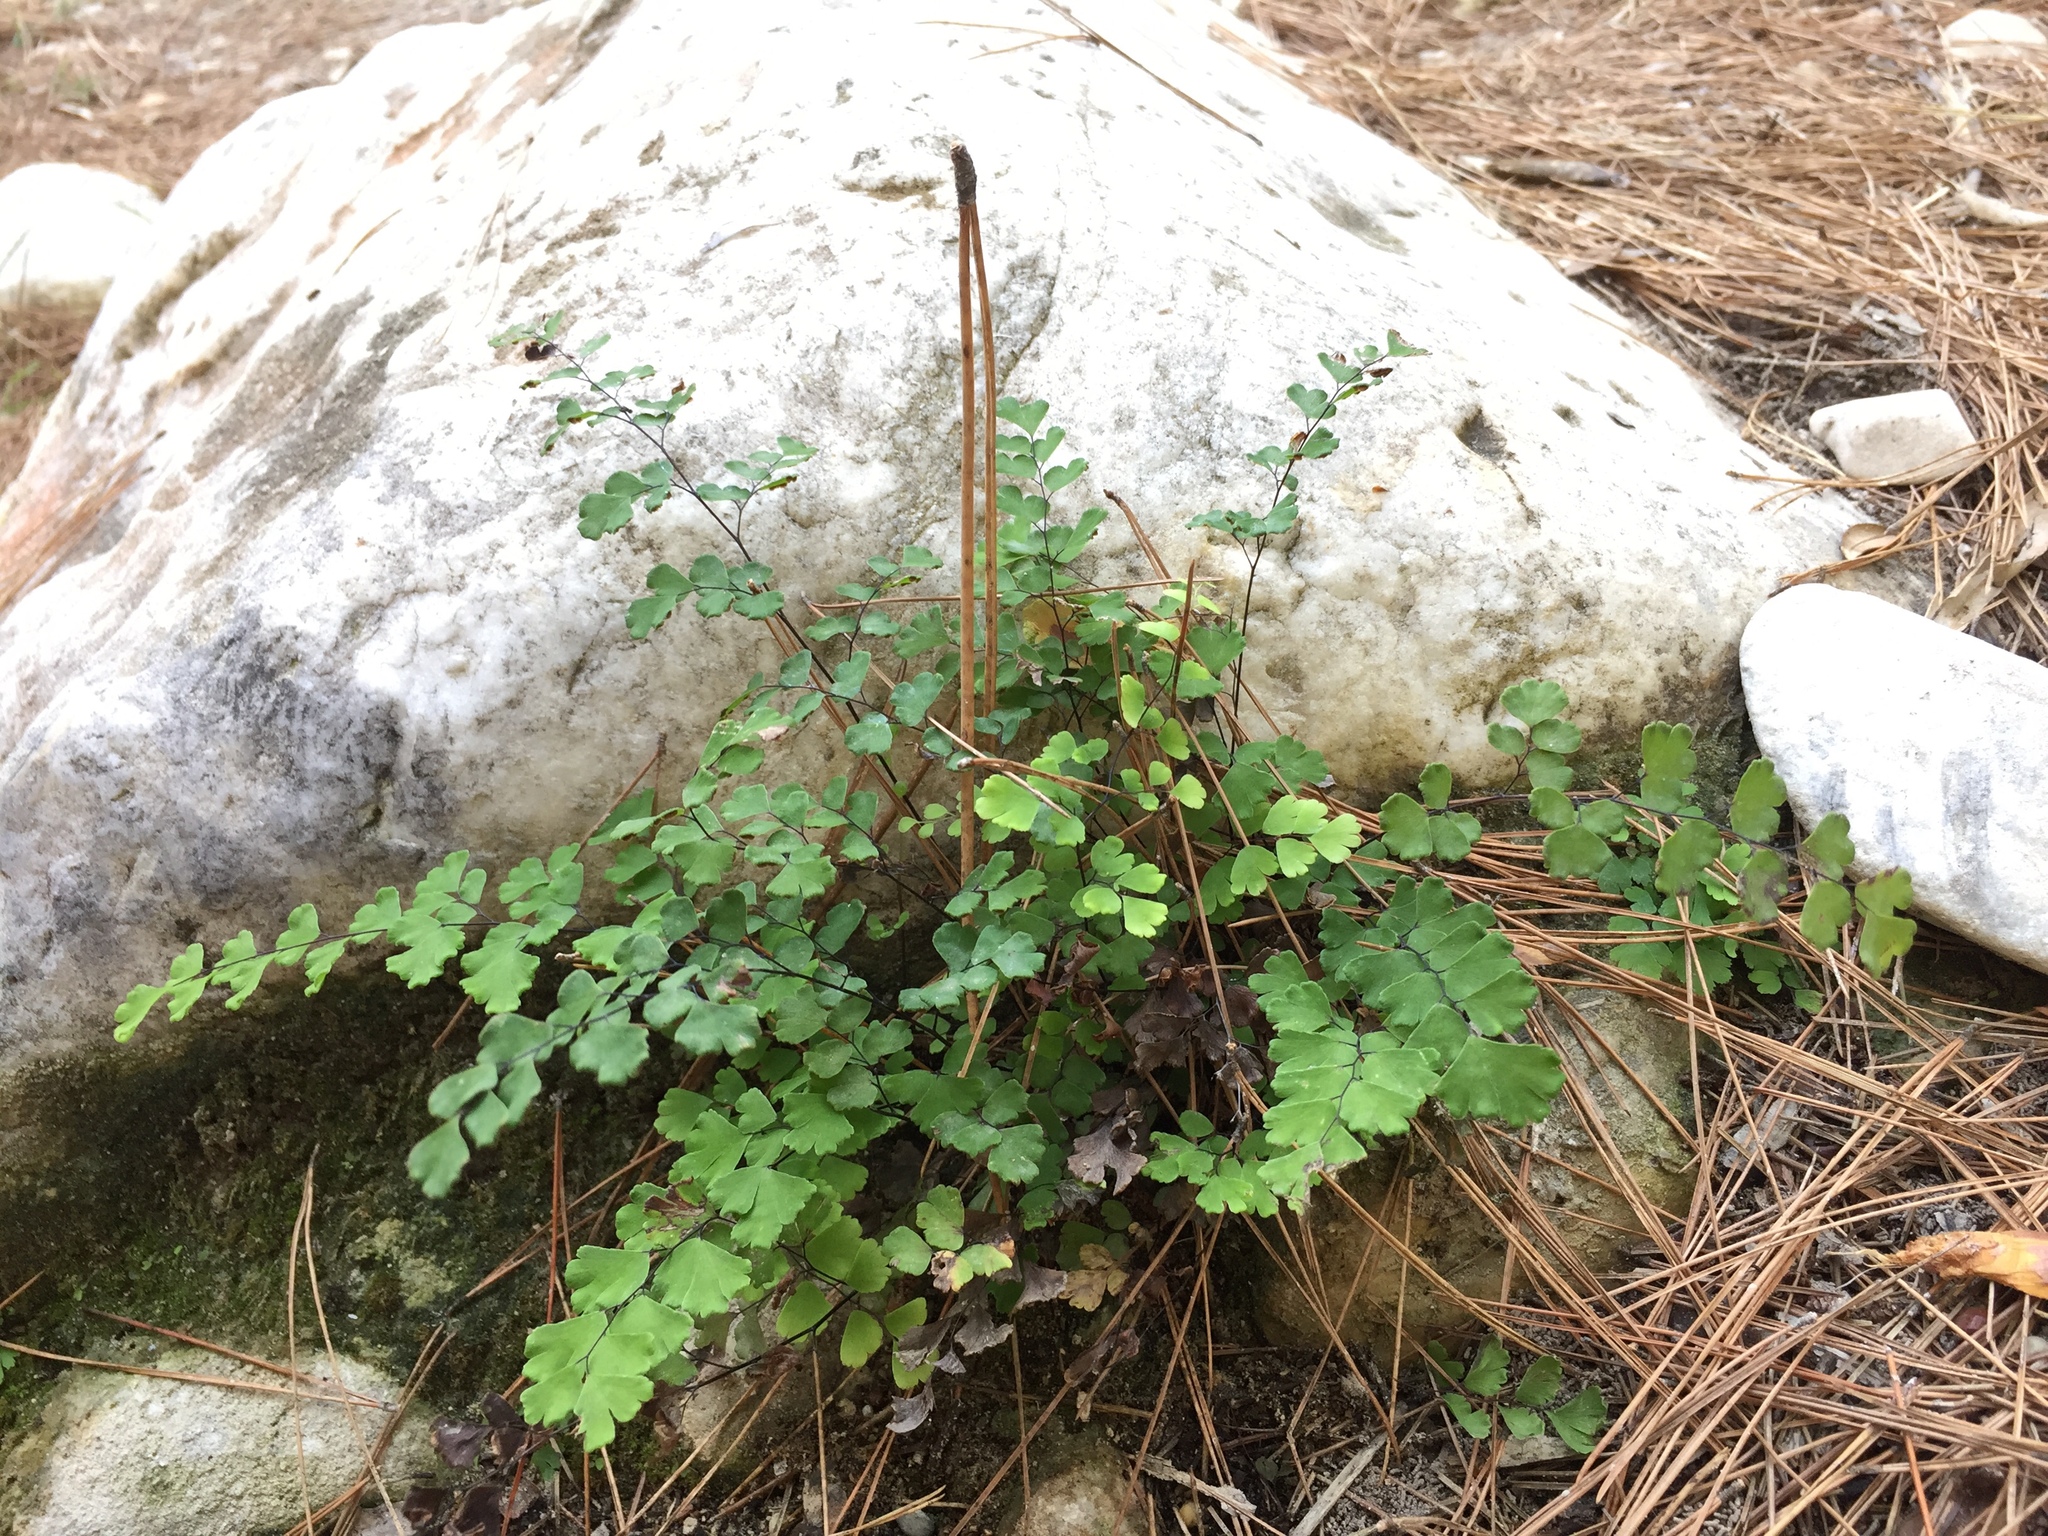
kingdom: Plantae
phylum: Tracheophyta
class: Polypodiopsida
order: Polypodiales
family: Pteridaceae
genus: Adiantum
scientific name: Adiantum capillus-veneris
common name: Maidenhair fern
